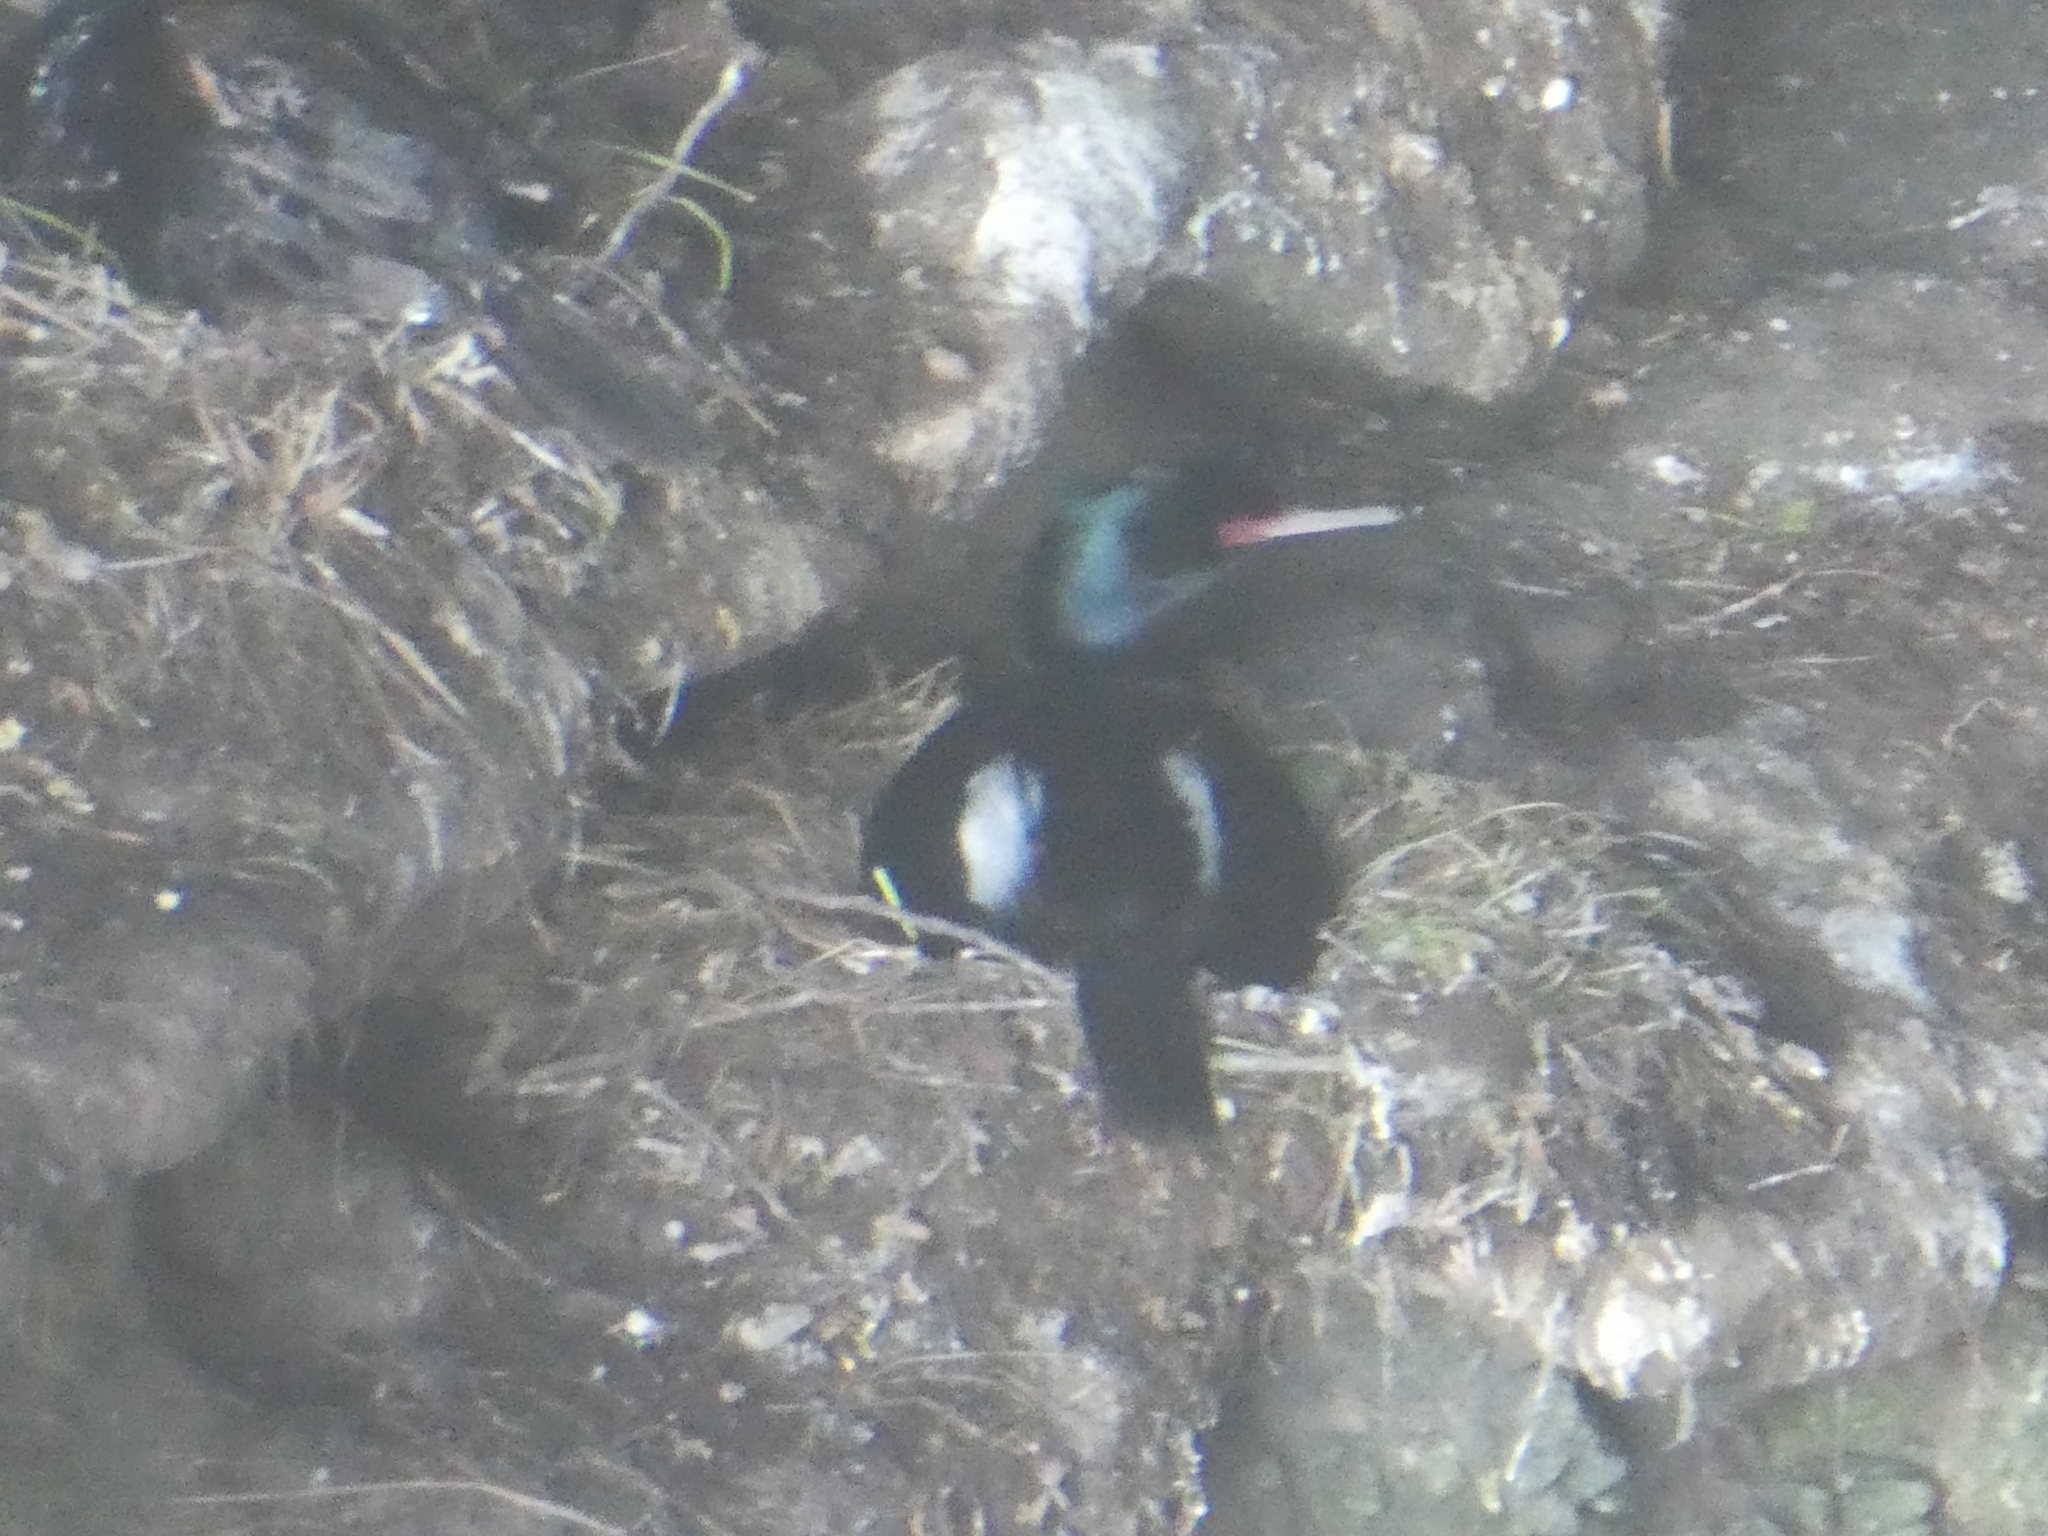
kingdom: Animalia
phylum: Chordata
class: Aves
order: Suliformes
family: Phalacrocoracidae
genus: Phalacrocorax
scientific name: Phalacrocorax pelagicus
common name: Pelagic cormorant
